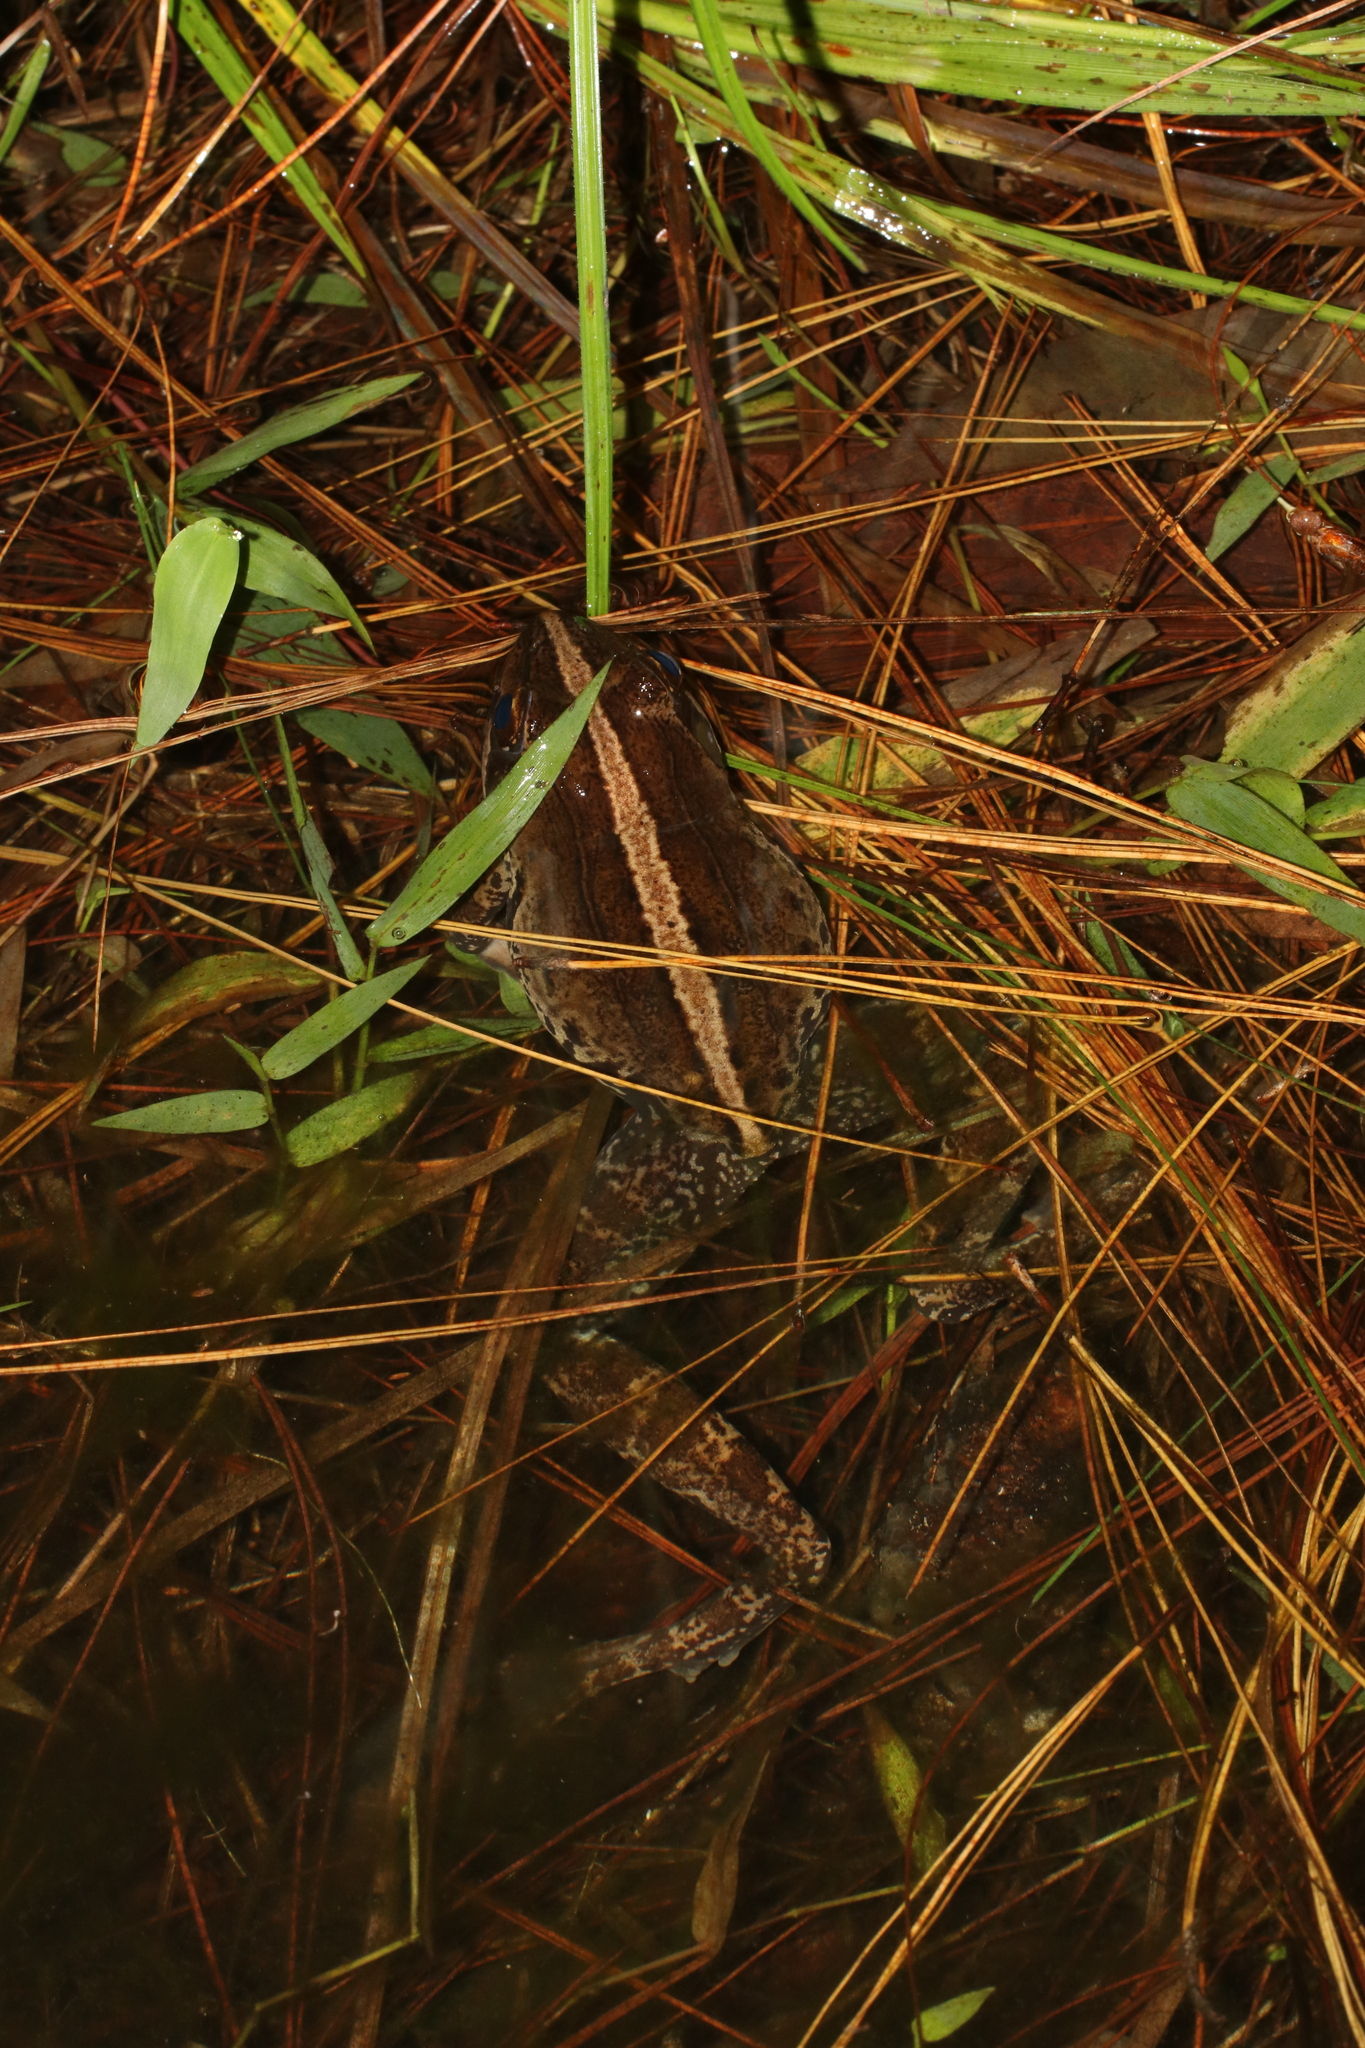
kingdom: Animalia
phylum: Chordata
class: Amphibia
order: Anura
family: Pyxicephalidae
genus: Amietia
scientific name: Amietia tenuoplicata
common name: River frog
